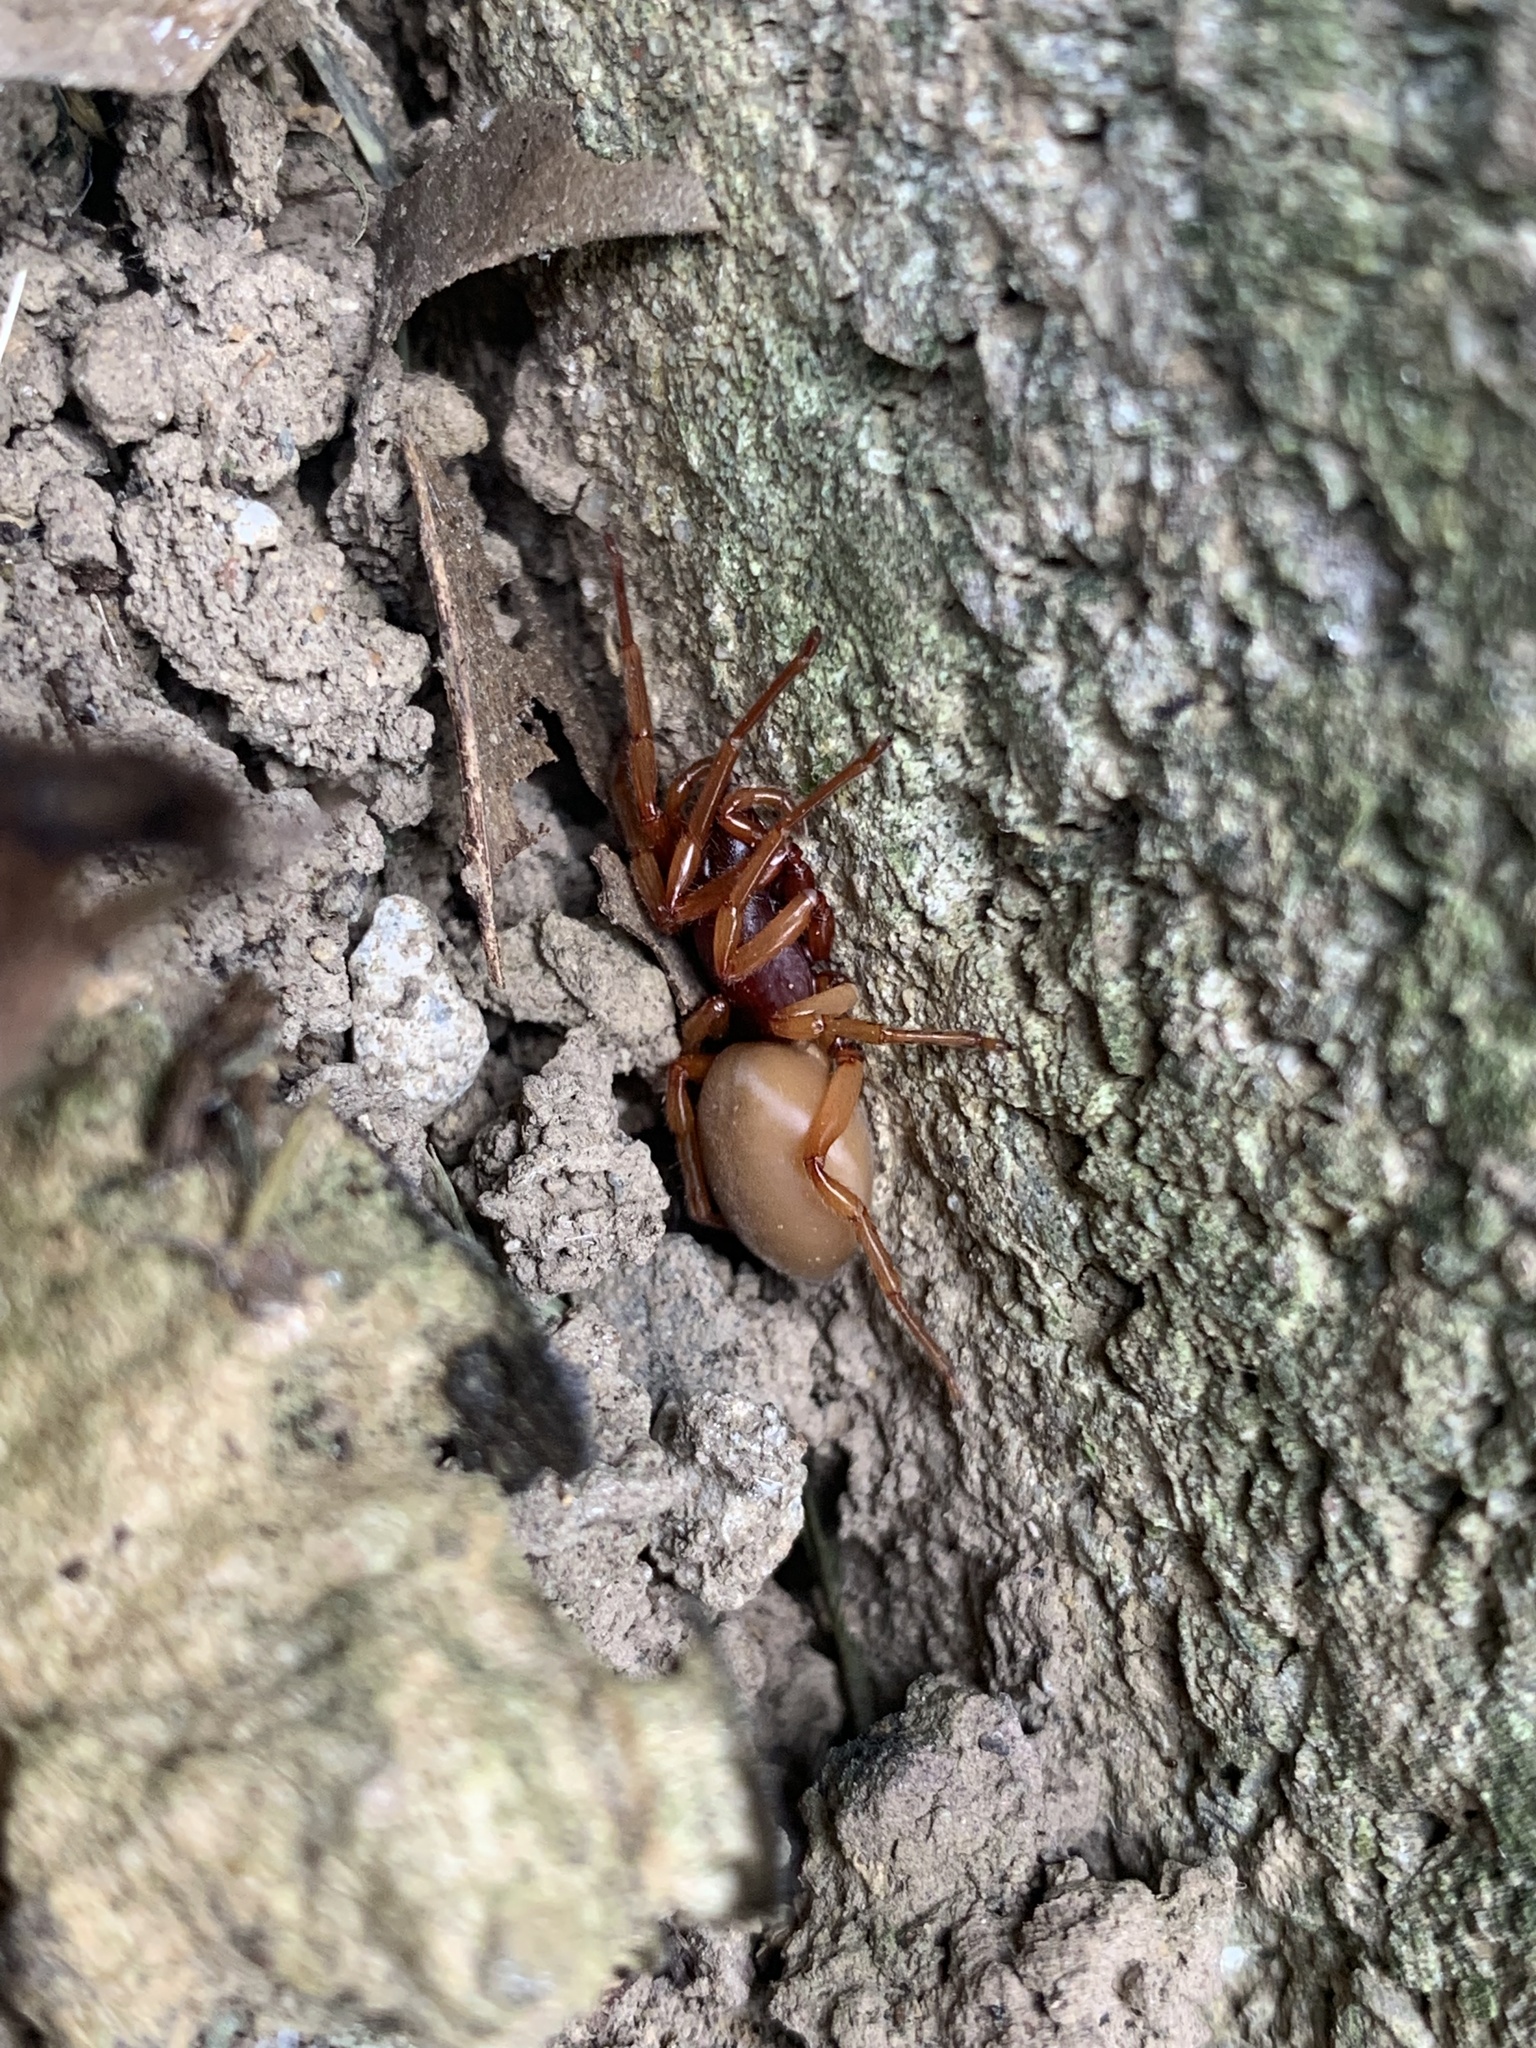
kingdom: Animalia
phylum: Arthropoda
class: Arachnida
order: Araneae
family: Dysderidae
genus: Dysdera
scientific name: Dysdera crocata
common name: Woodlouse spider
